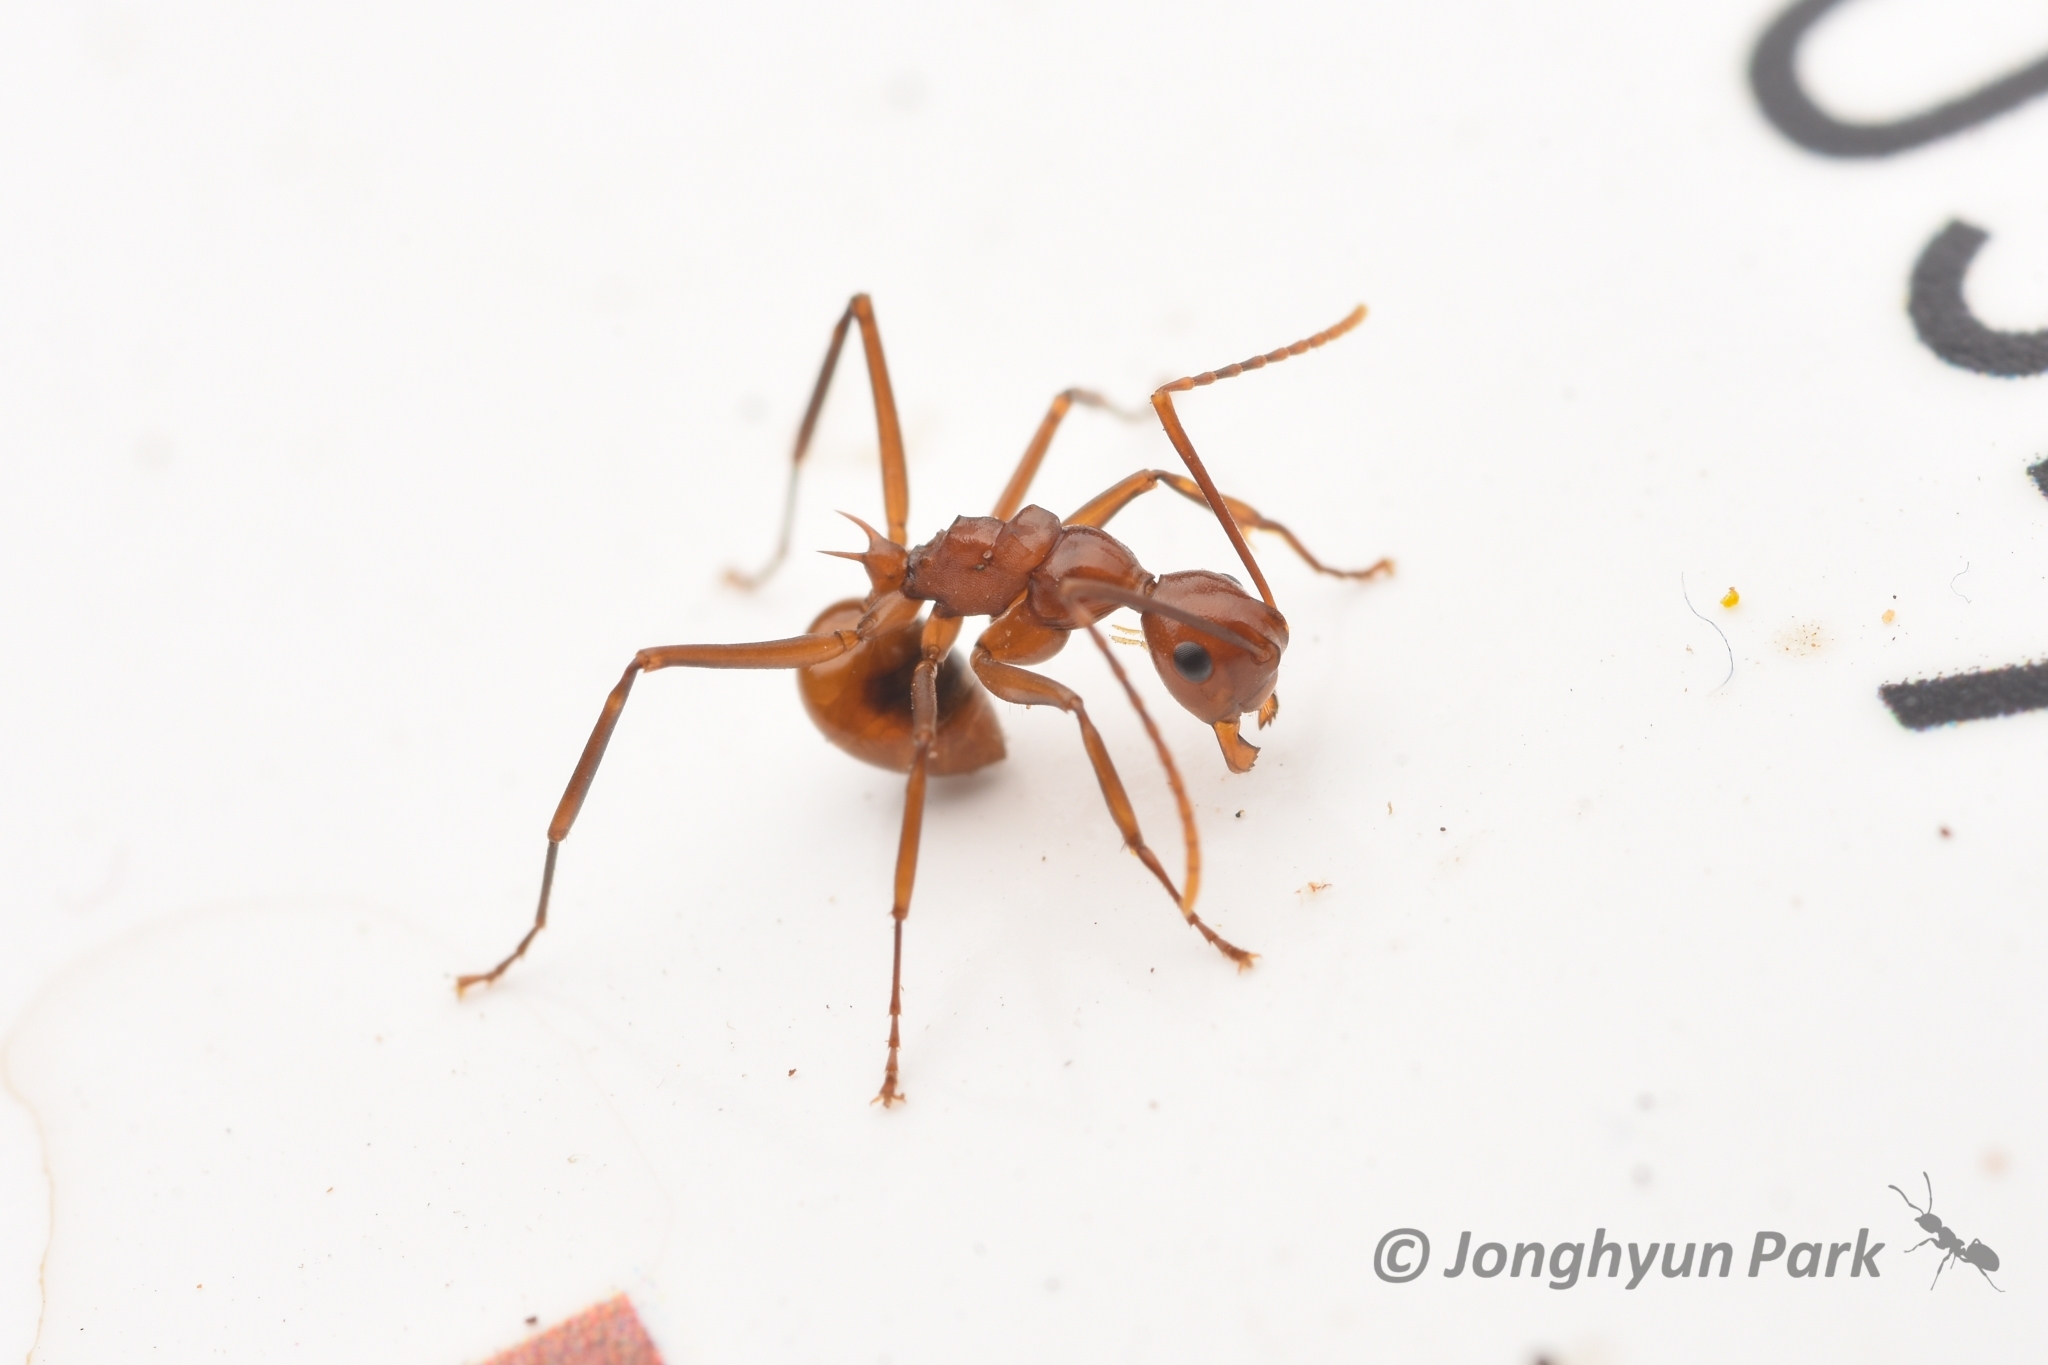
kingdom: Animalia
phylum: Arthropoda
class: Insecta
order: Hymenoptera
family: Formicidae
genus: Polyrhachis
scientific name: Polyrhachis
